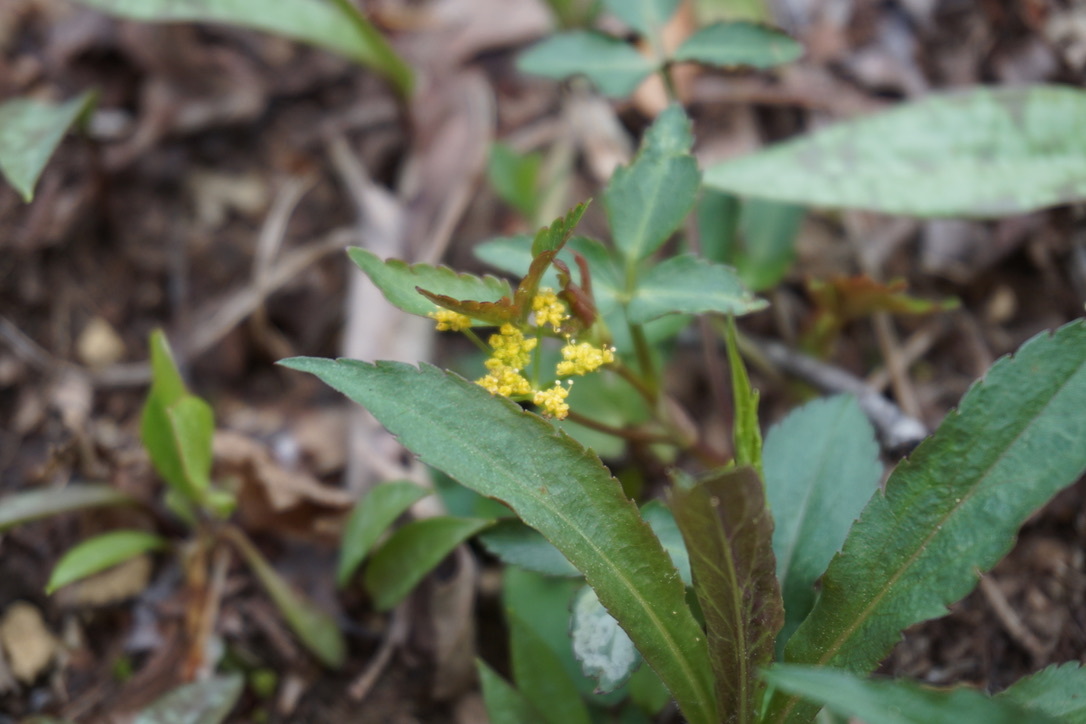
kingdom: Plantae
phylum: Tracheophyta
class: Magnoliopsida
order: Apiales
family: Apiaceae
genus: Zizia
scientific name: Zizia aurea
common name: Golden alexanders
